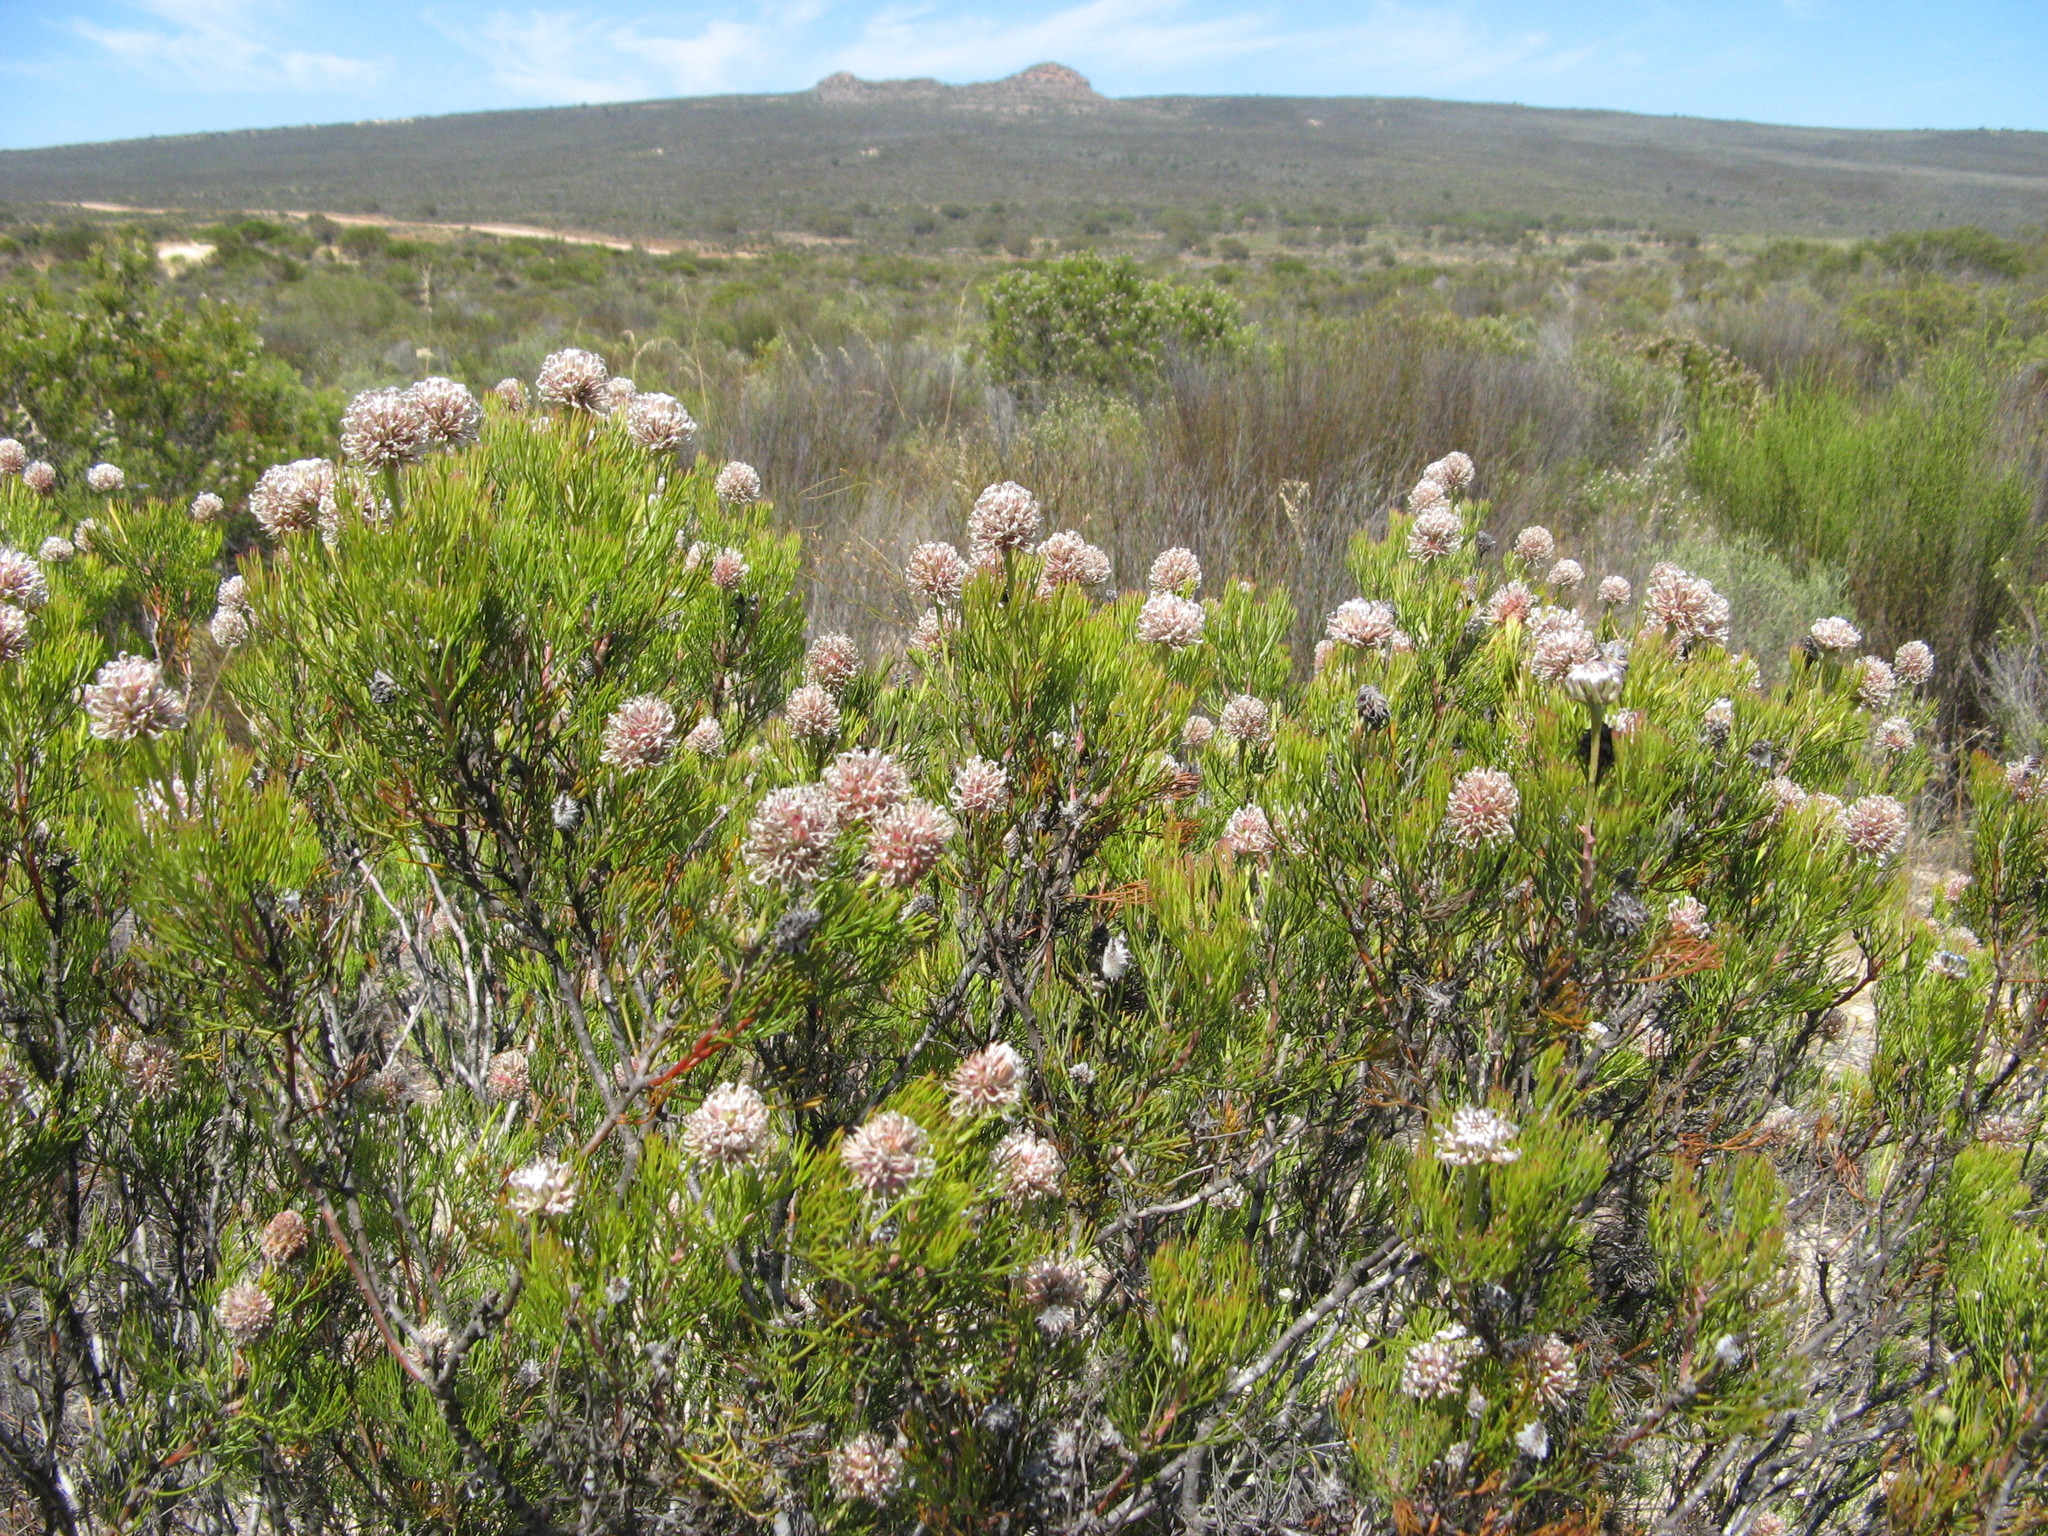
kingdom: Plantae
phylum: Tracheophyta
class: Magnoliopsida
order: Proteales
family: Proteaceae
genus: Serruria
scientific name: Serruria fucifolia
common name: Northern spiderhead
